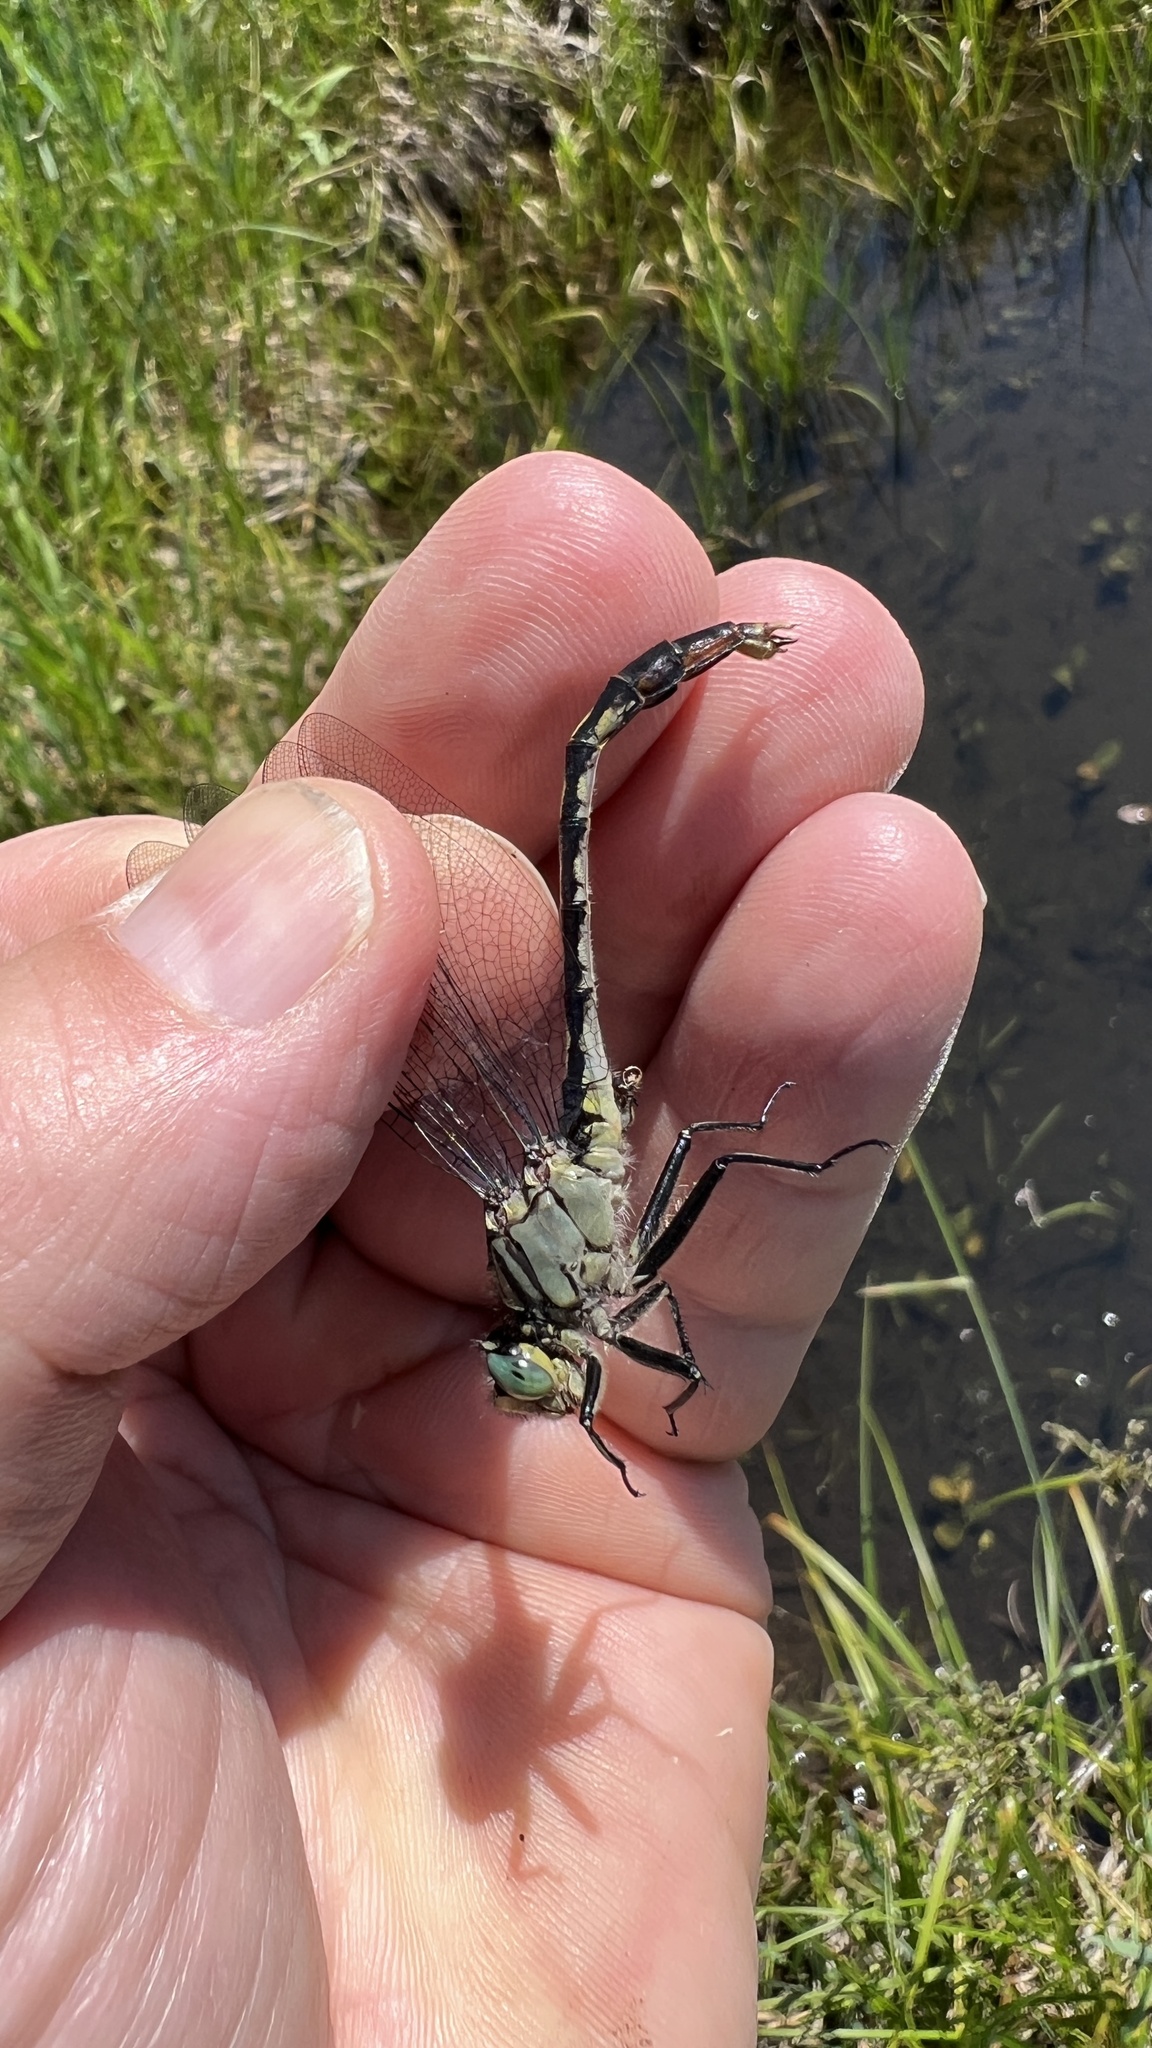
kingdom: Animalia
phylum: Arthropoda
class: Insecta
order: Odonata
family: Gomphidae
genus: Arigomphus
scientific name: Arigomphus villosipes
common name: Unicorn clubtail
